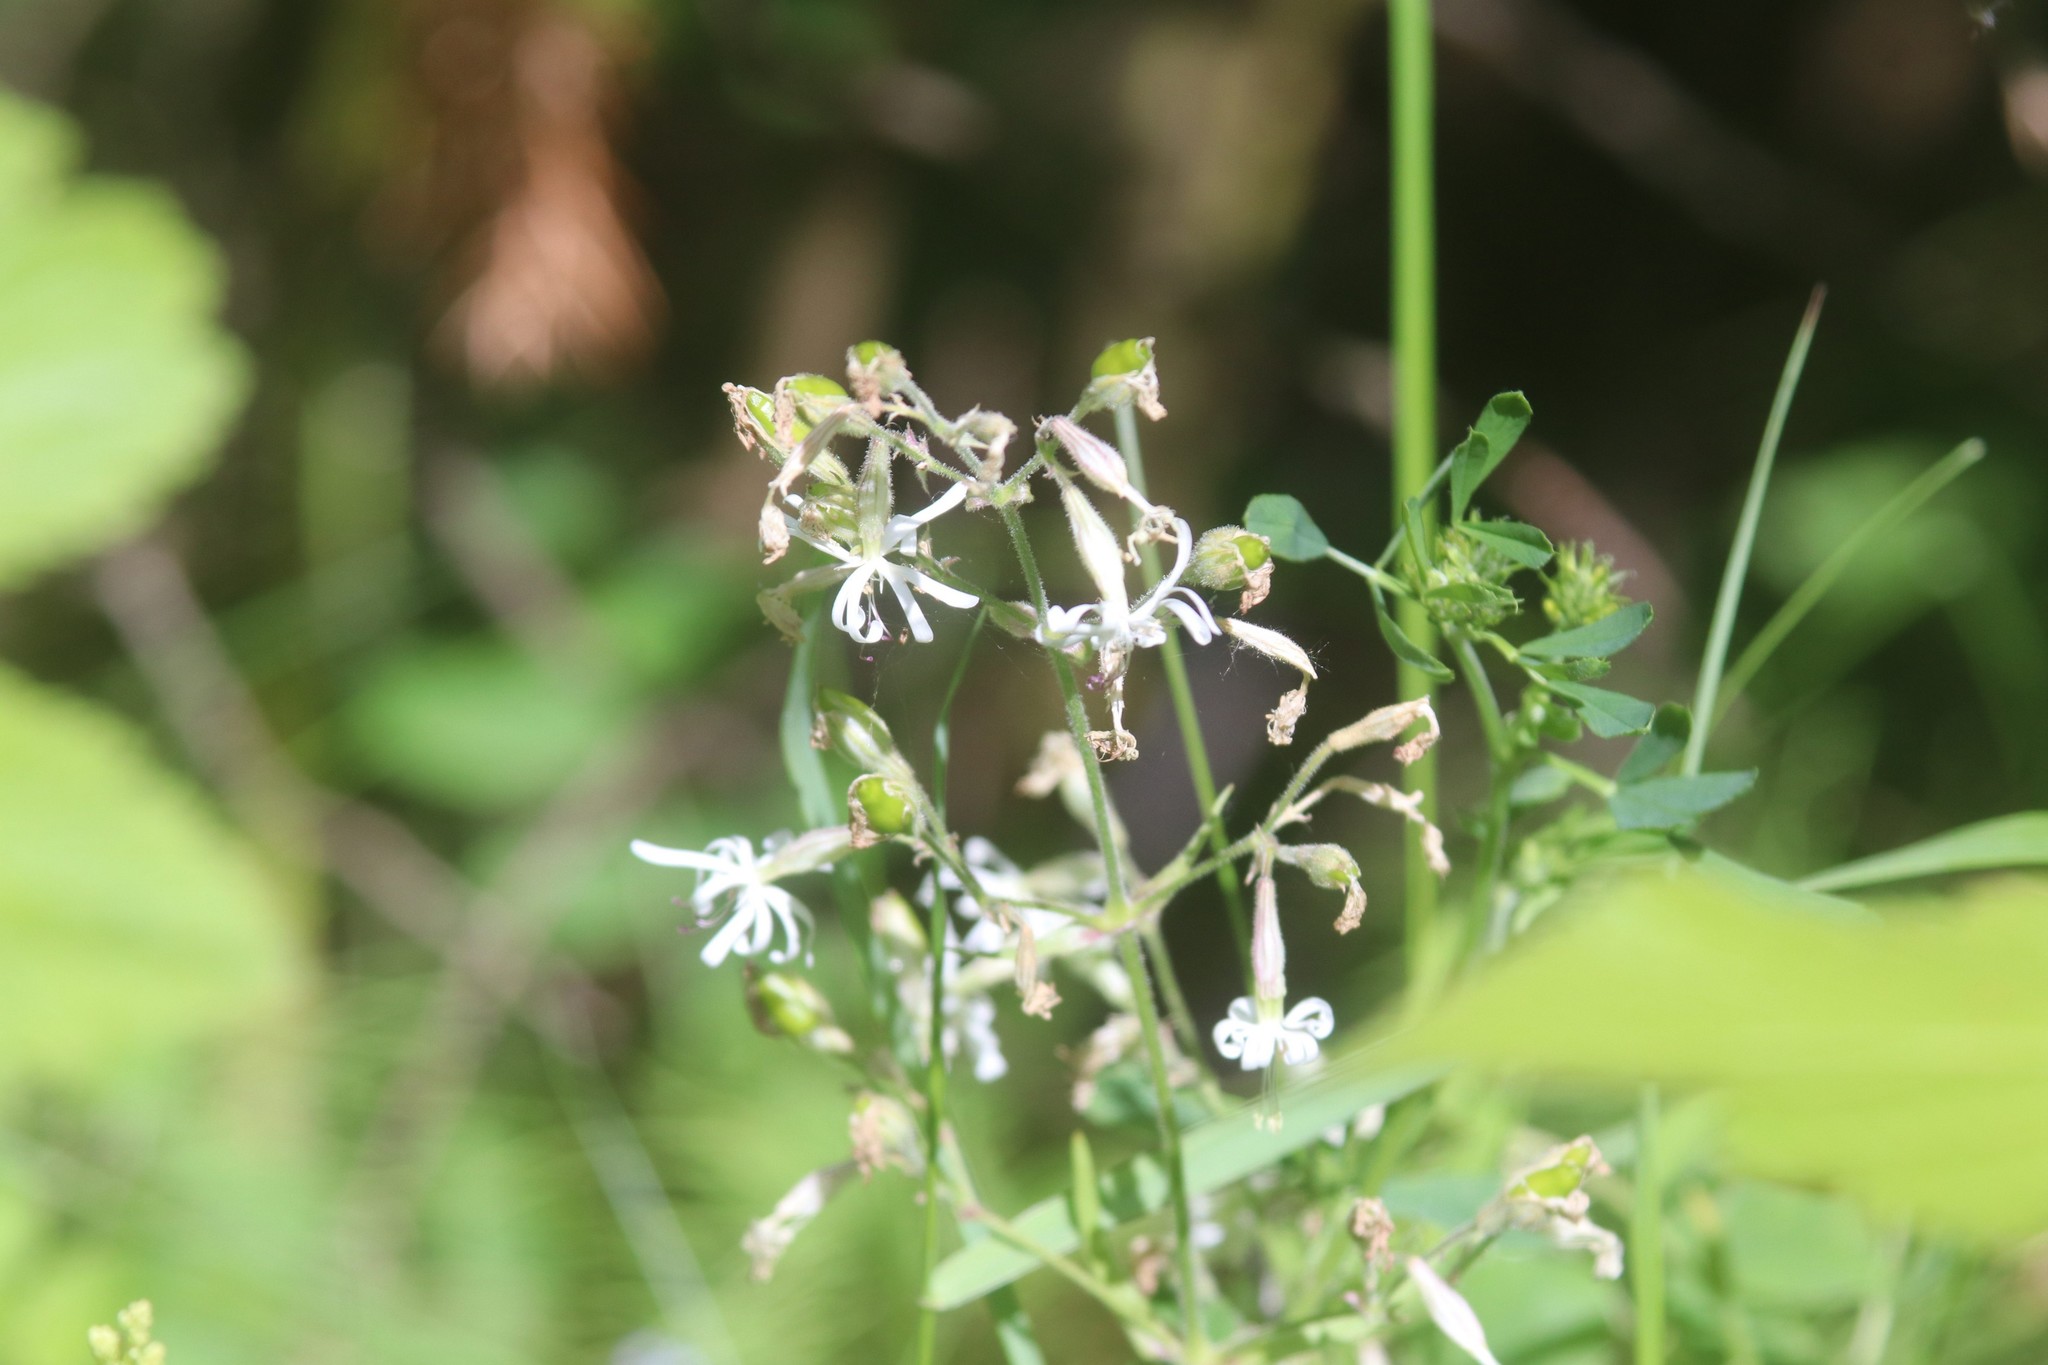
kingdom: Plantae
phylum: Tracheophyta
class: Magnoliopsida
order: Caryophyllales
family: Caryophyllaceae
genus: Silene
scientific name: Silene nutans
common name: Nottingham catchfly
